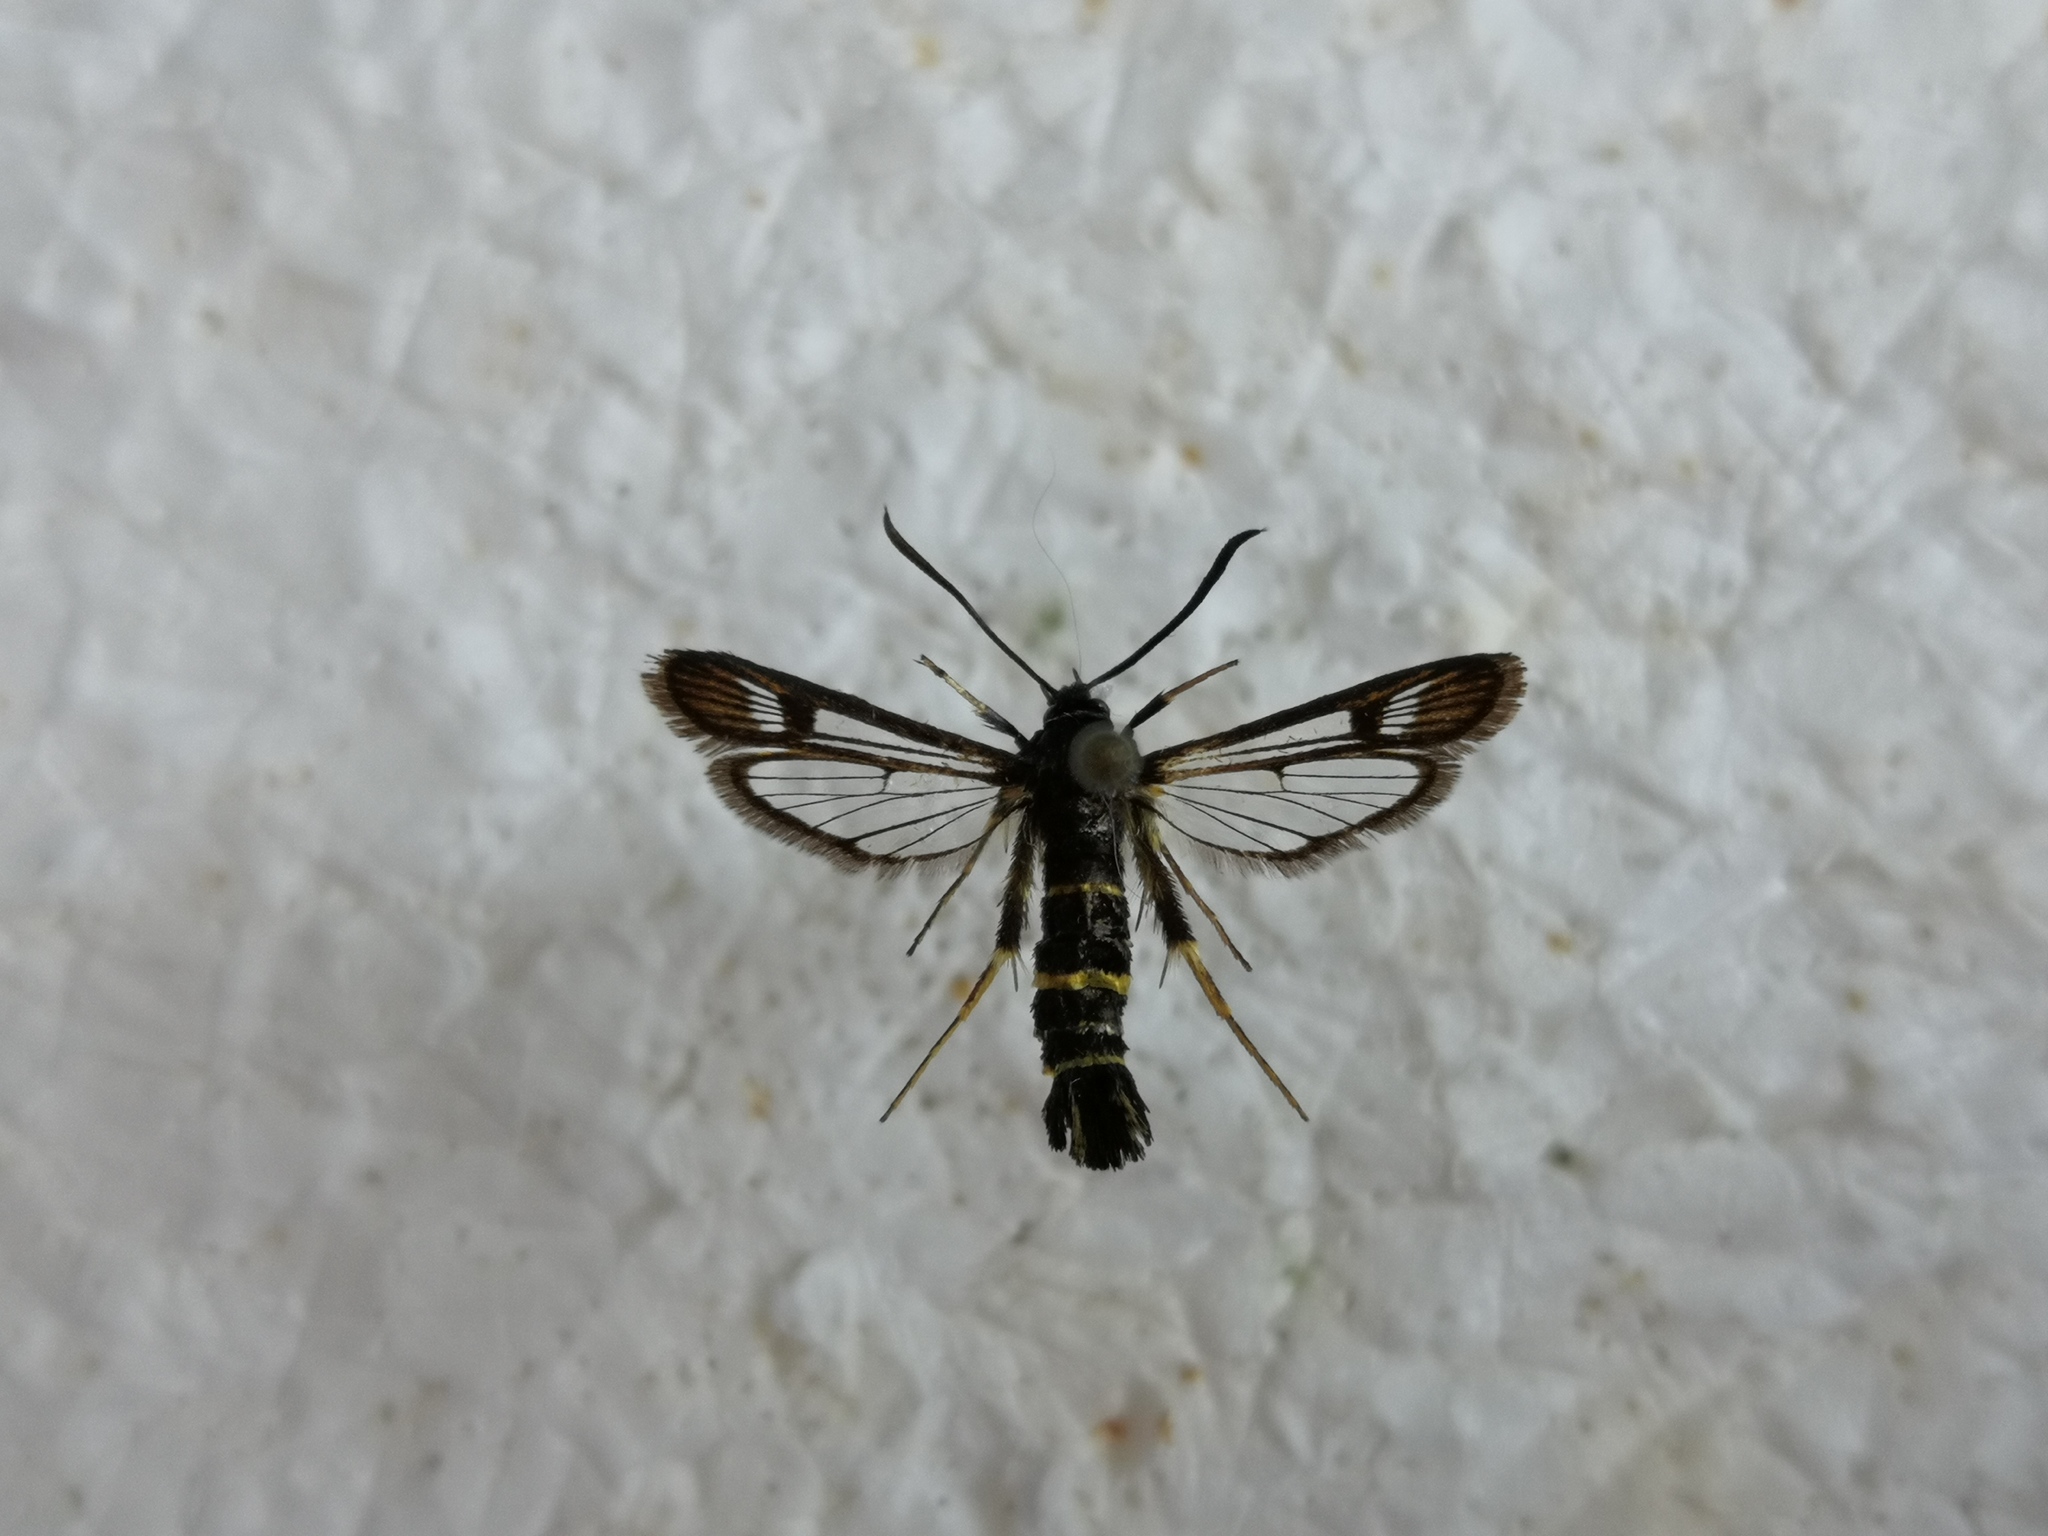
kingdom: Animalia
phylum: Arthropoda
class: Insecta
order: Lepidoptera
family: Sesiidae
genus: Synanthedon
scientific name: Synanthedon flaviventris
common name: Sallow clearwing
